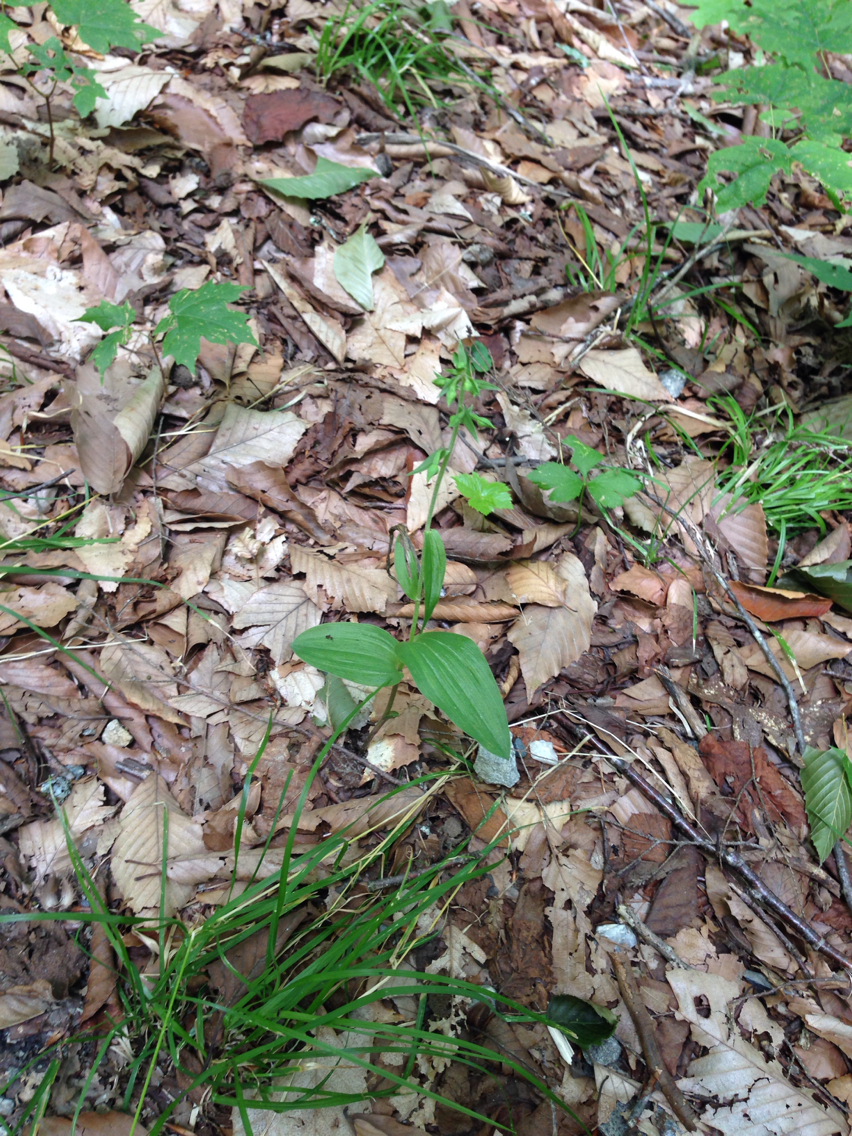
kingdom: Plantae
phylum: Tracheophyta
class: Liliopsida
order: Asparagales
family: Orchidaceae
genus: Epipactis
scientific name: Epipactis helleborine
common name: Broad-leaved helleborine
